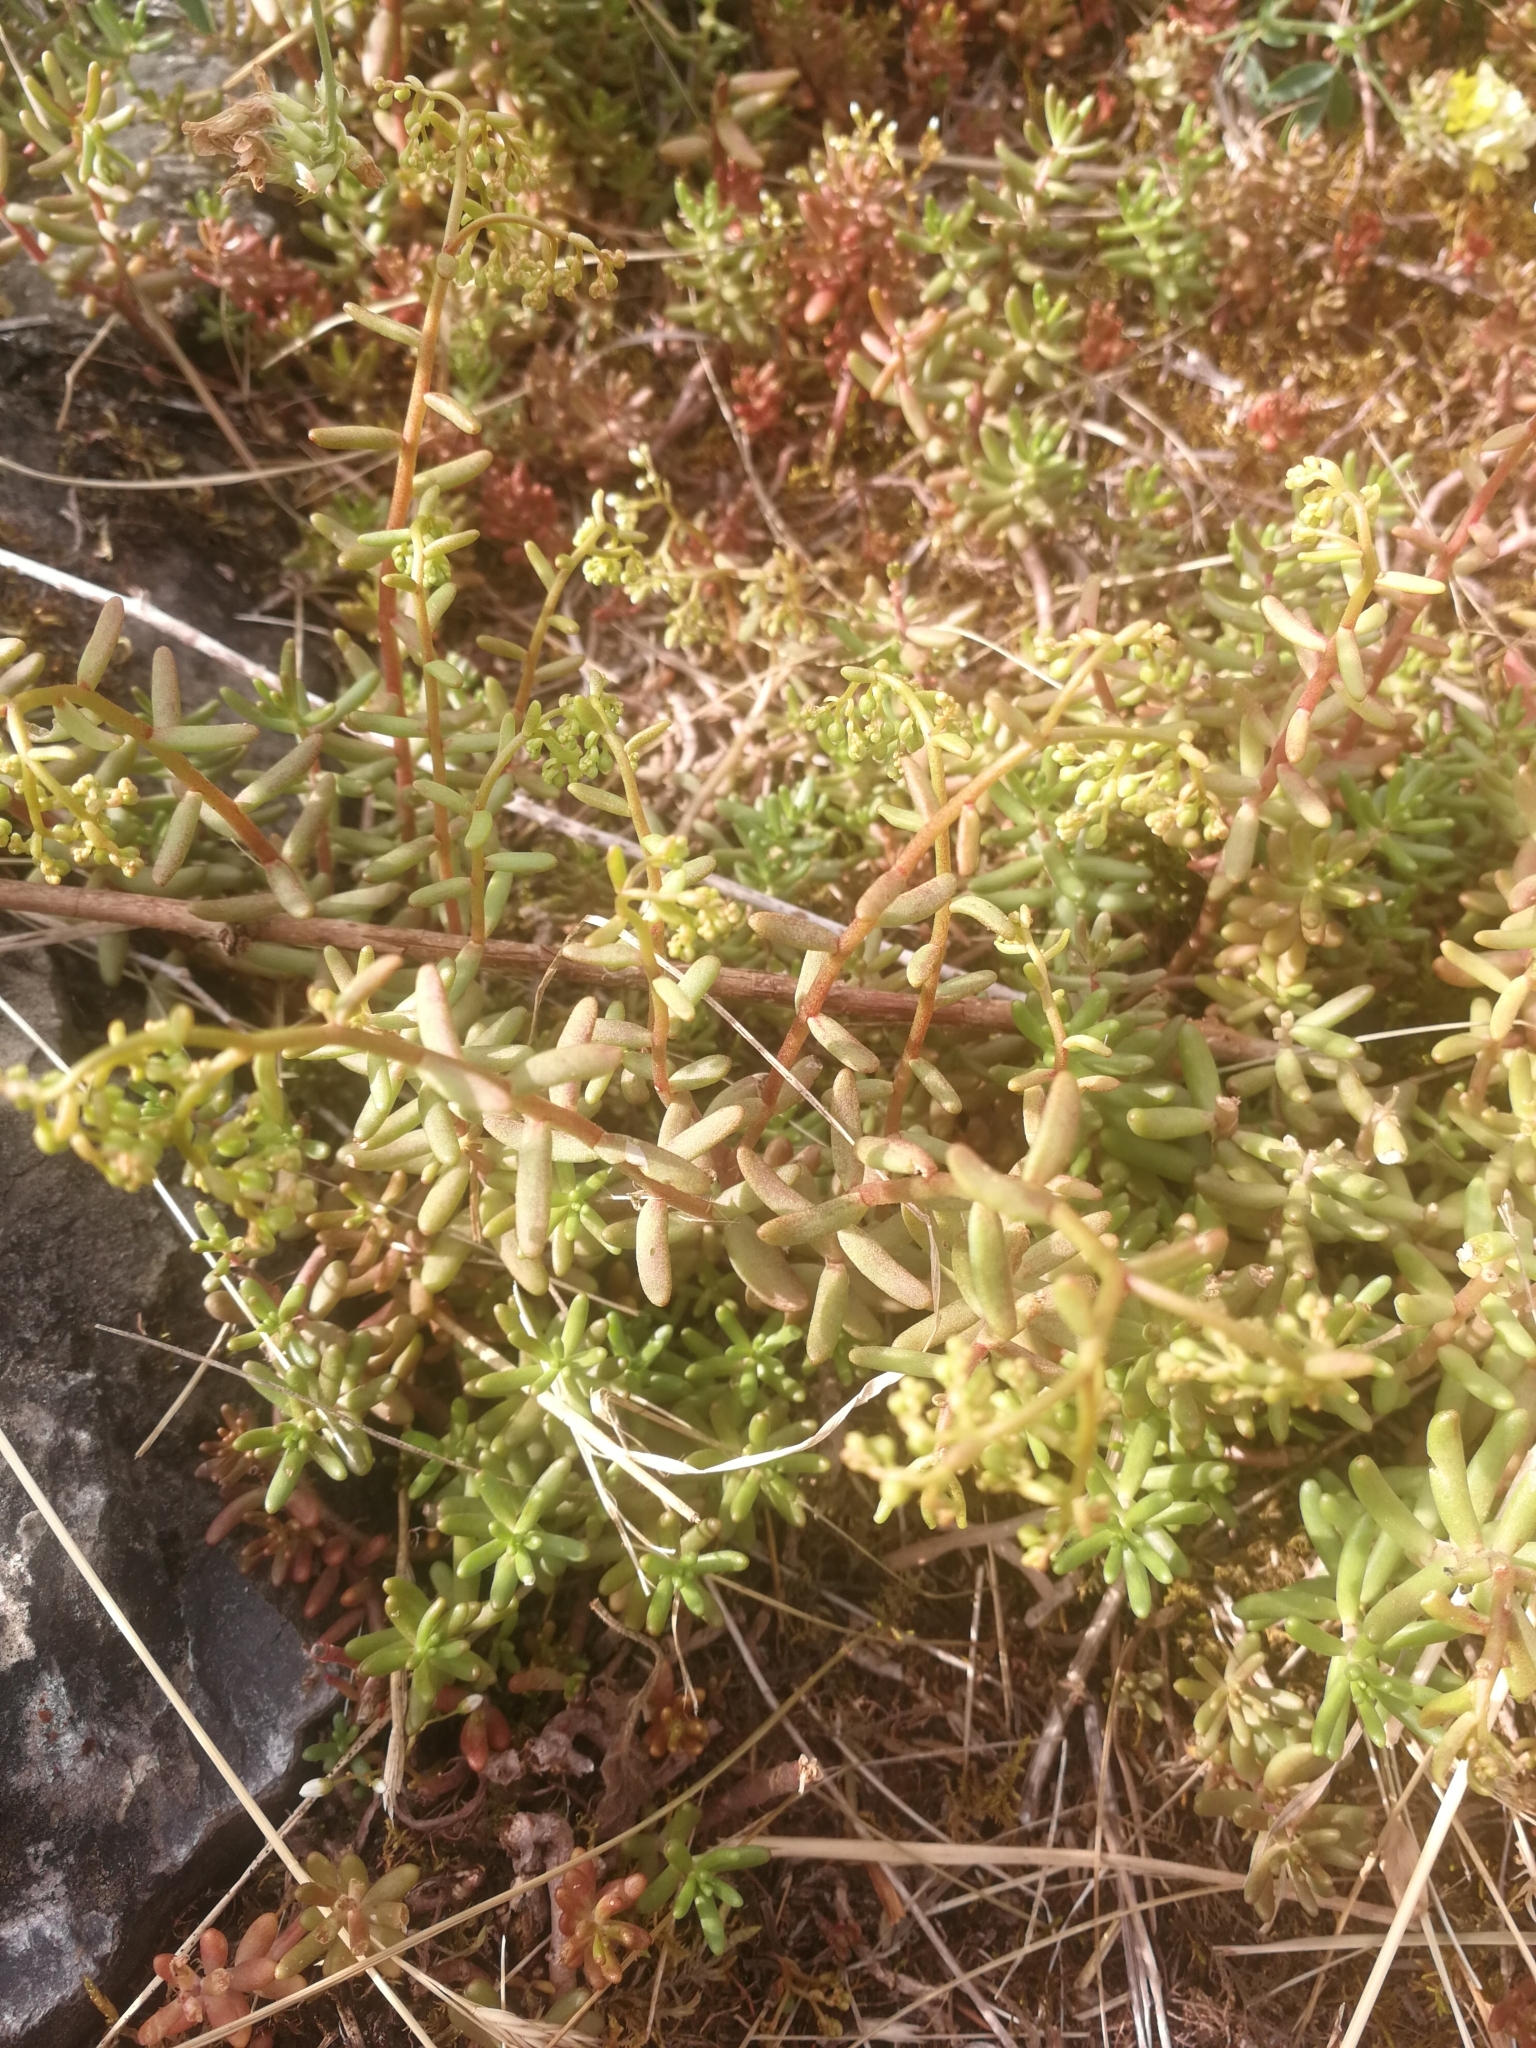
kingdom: Plantae
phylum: Tracheophyta
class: Magnoliopsida
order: Saxifragales
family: Crassulaceae
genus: Sedum
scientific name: Sedum album
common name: White stonecrop
